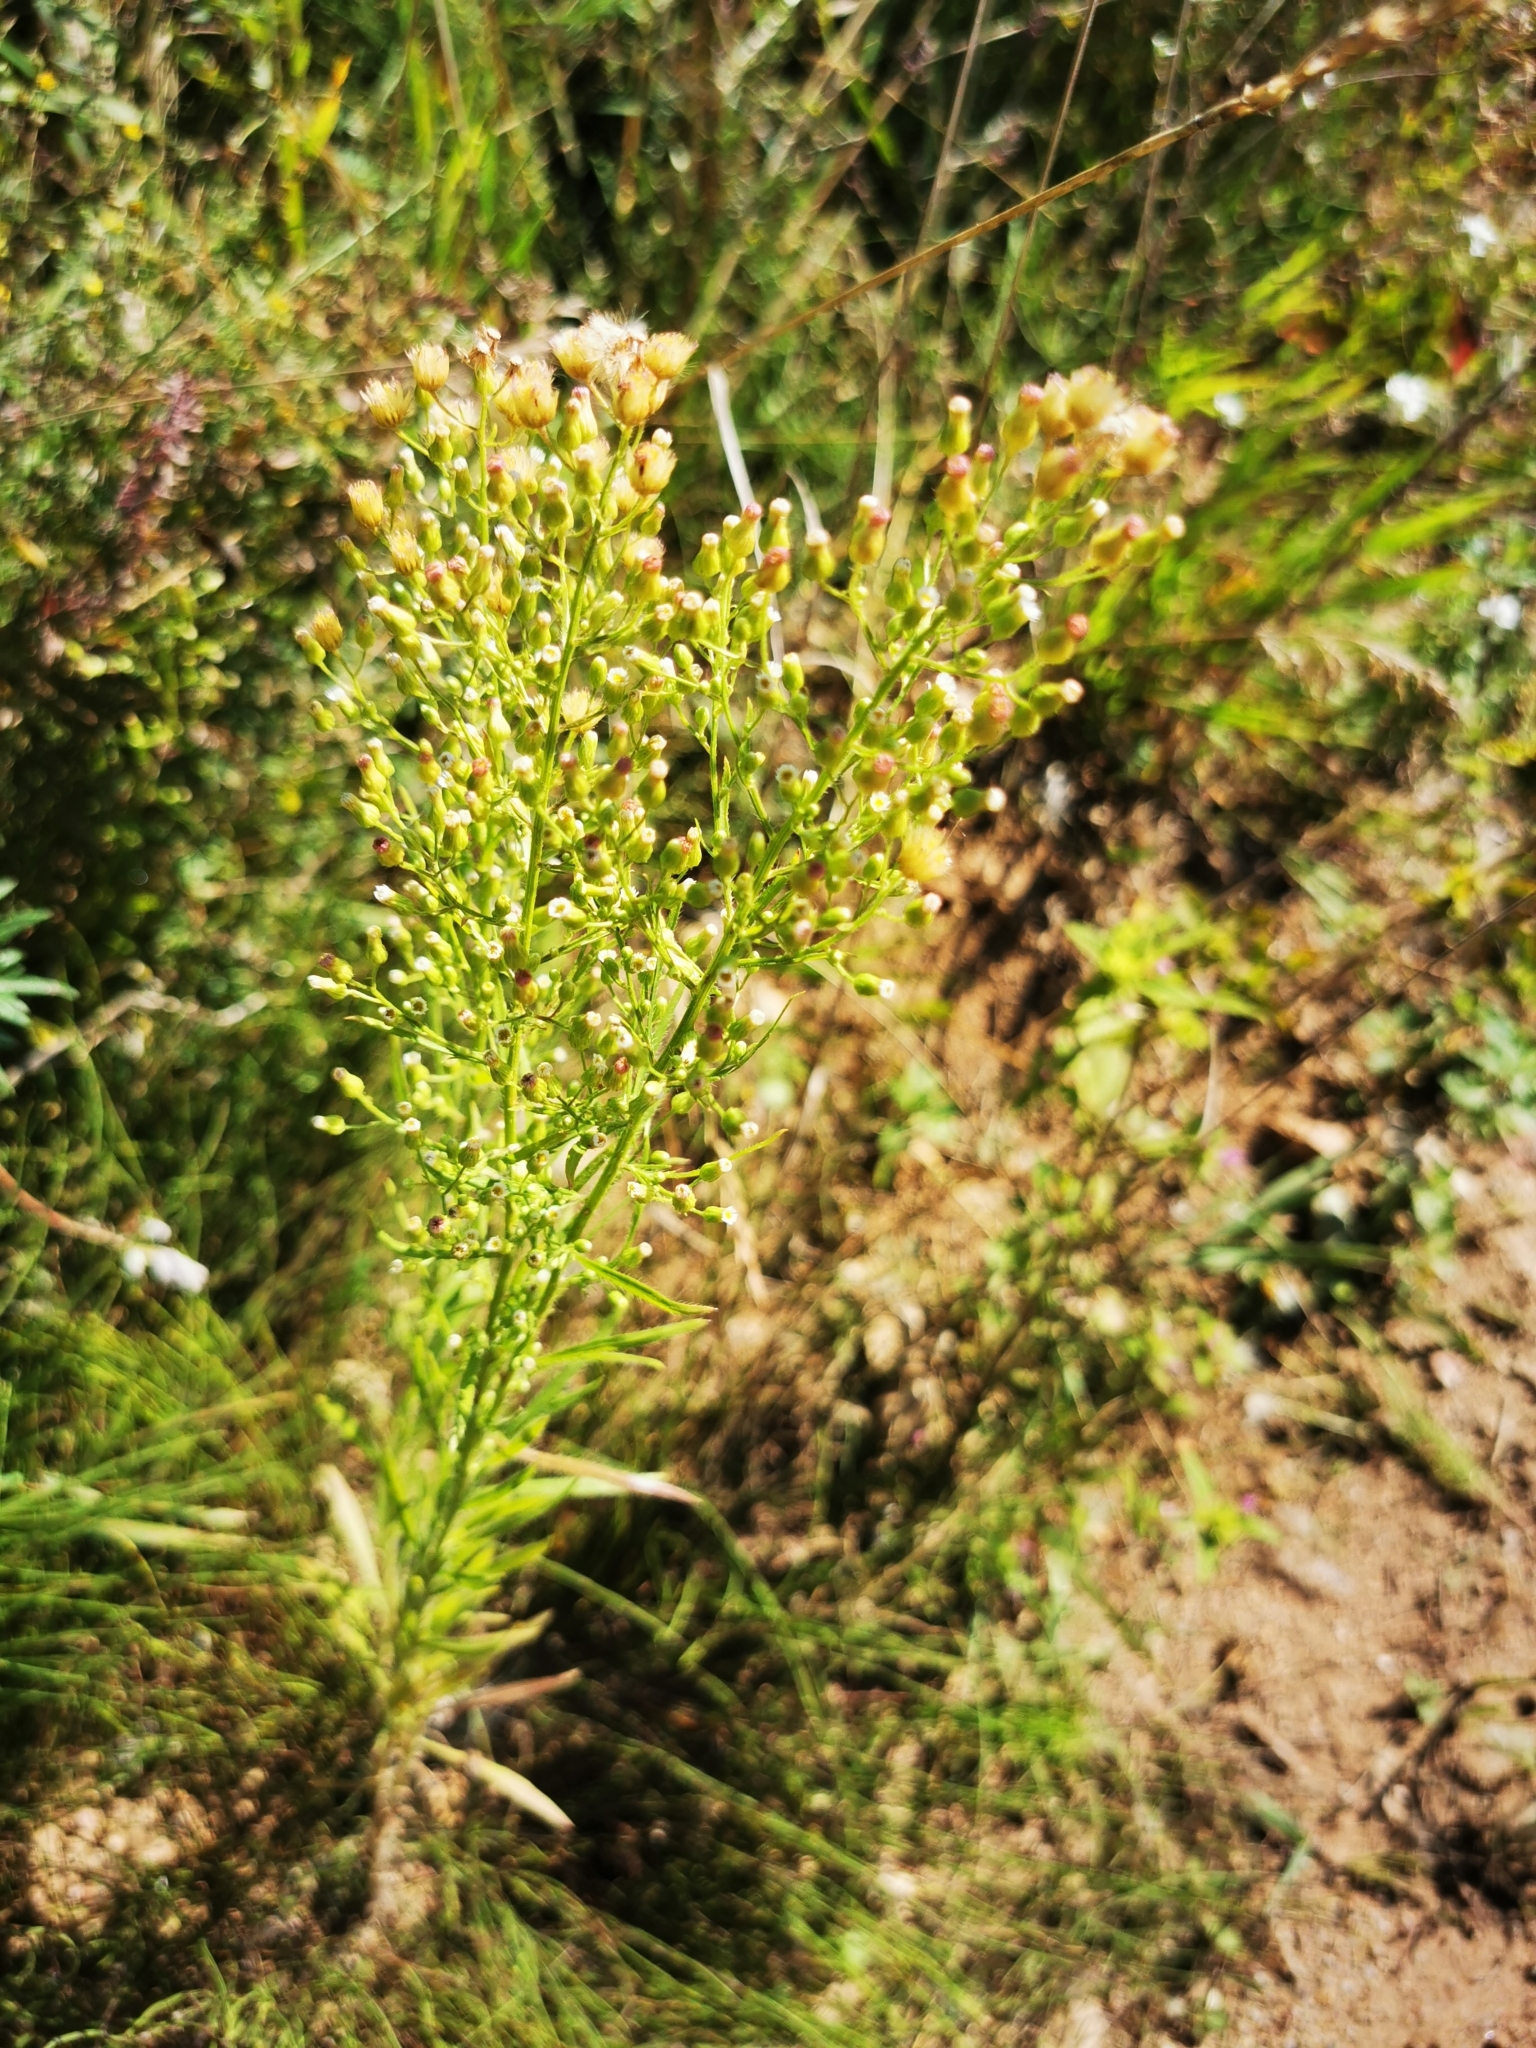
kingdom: Plantae
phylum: Tracheophyta
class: Magnoliopsida
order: Asterales
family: Asteraceae
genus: Erigeron
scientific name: Erigeron canadensis
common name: Canadian fleabane
